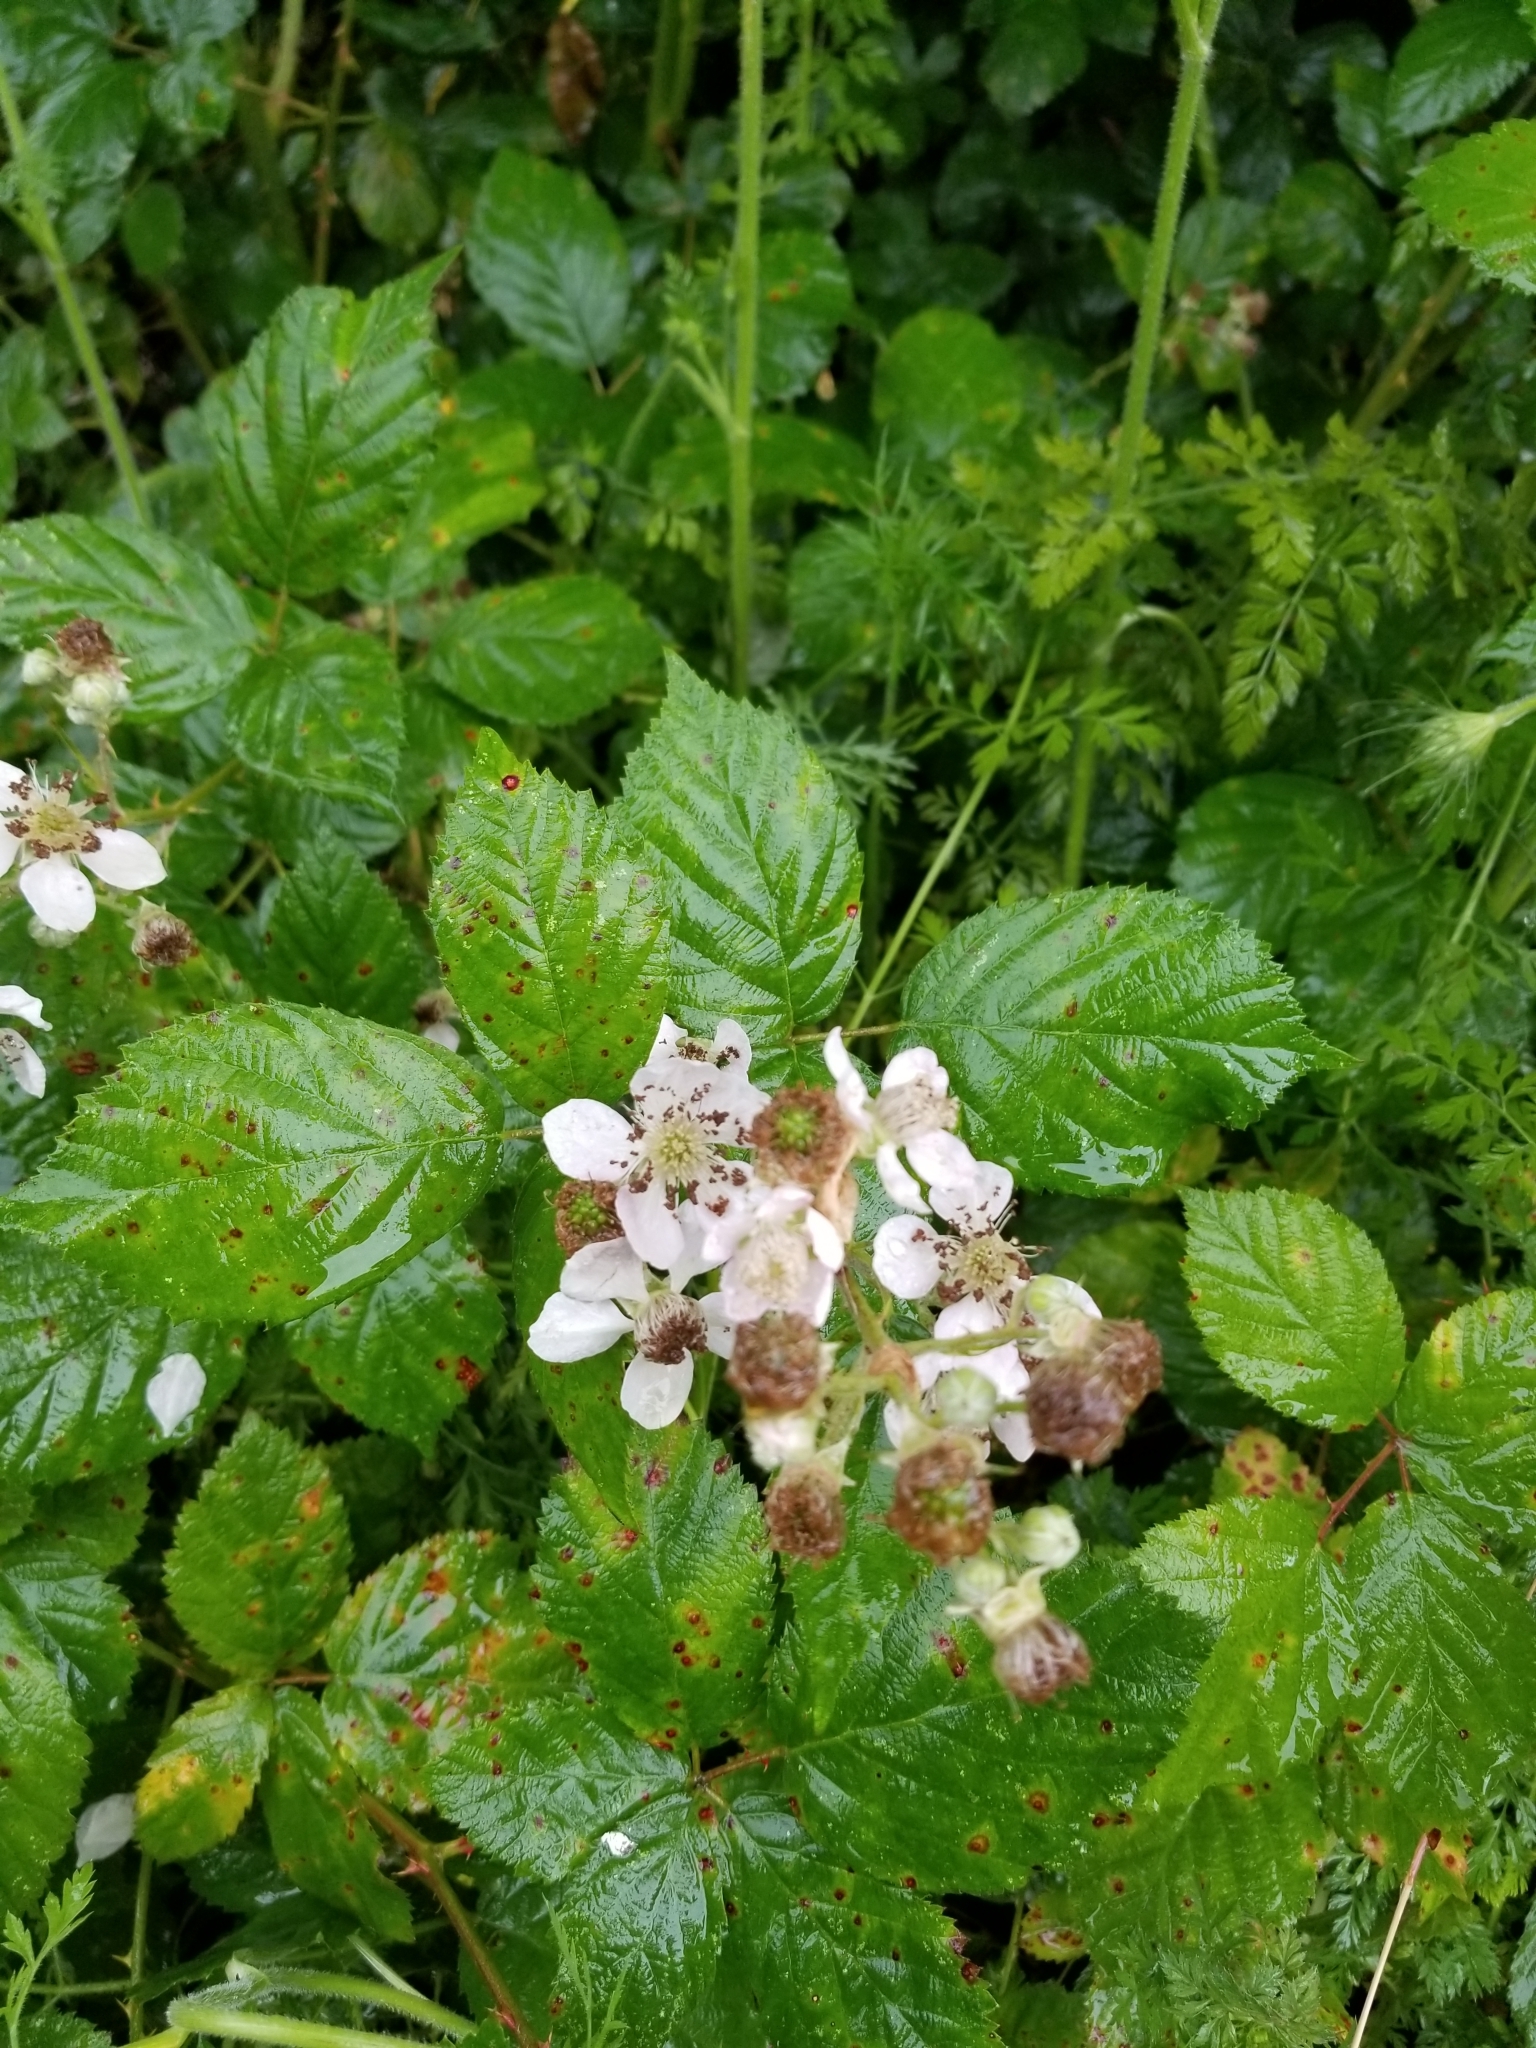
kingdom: Plantae
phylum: Tracheophyta
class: Magnoliopsida
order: Rosales
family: Rosaceae
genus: Rubus
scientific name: Rubus armeniacus
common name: Himalayan blackberry
